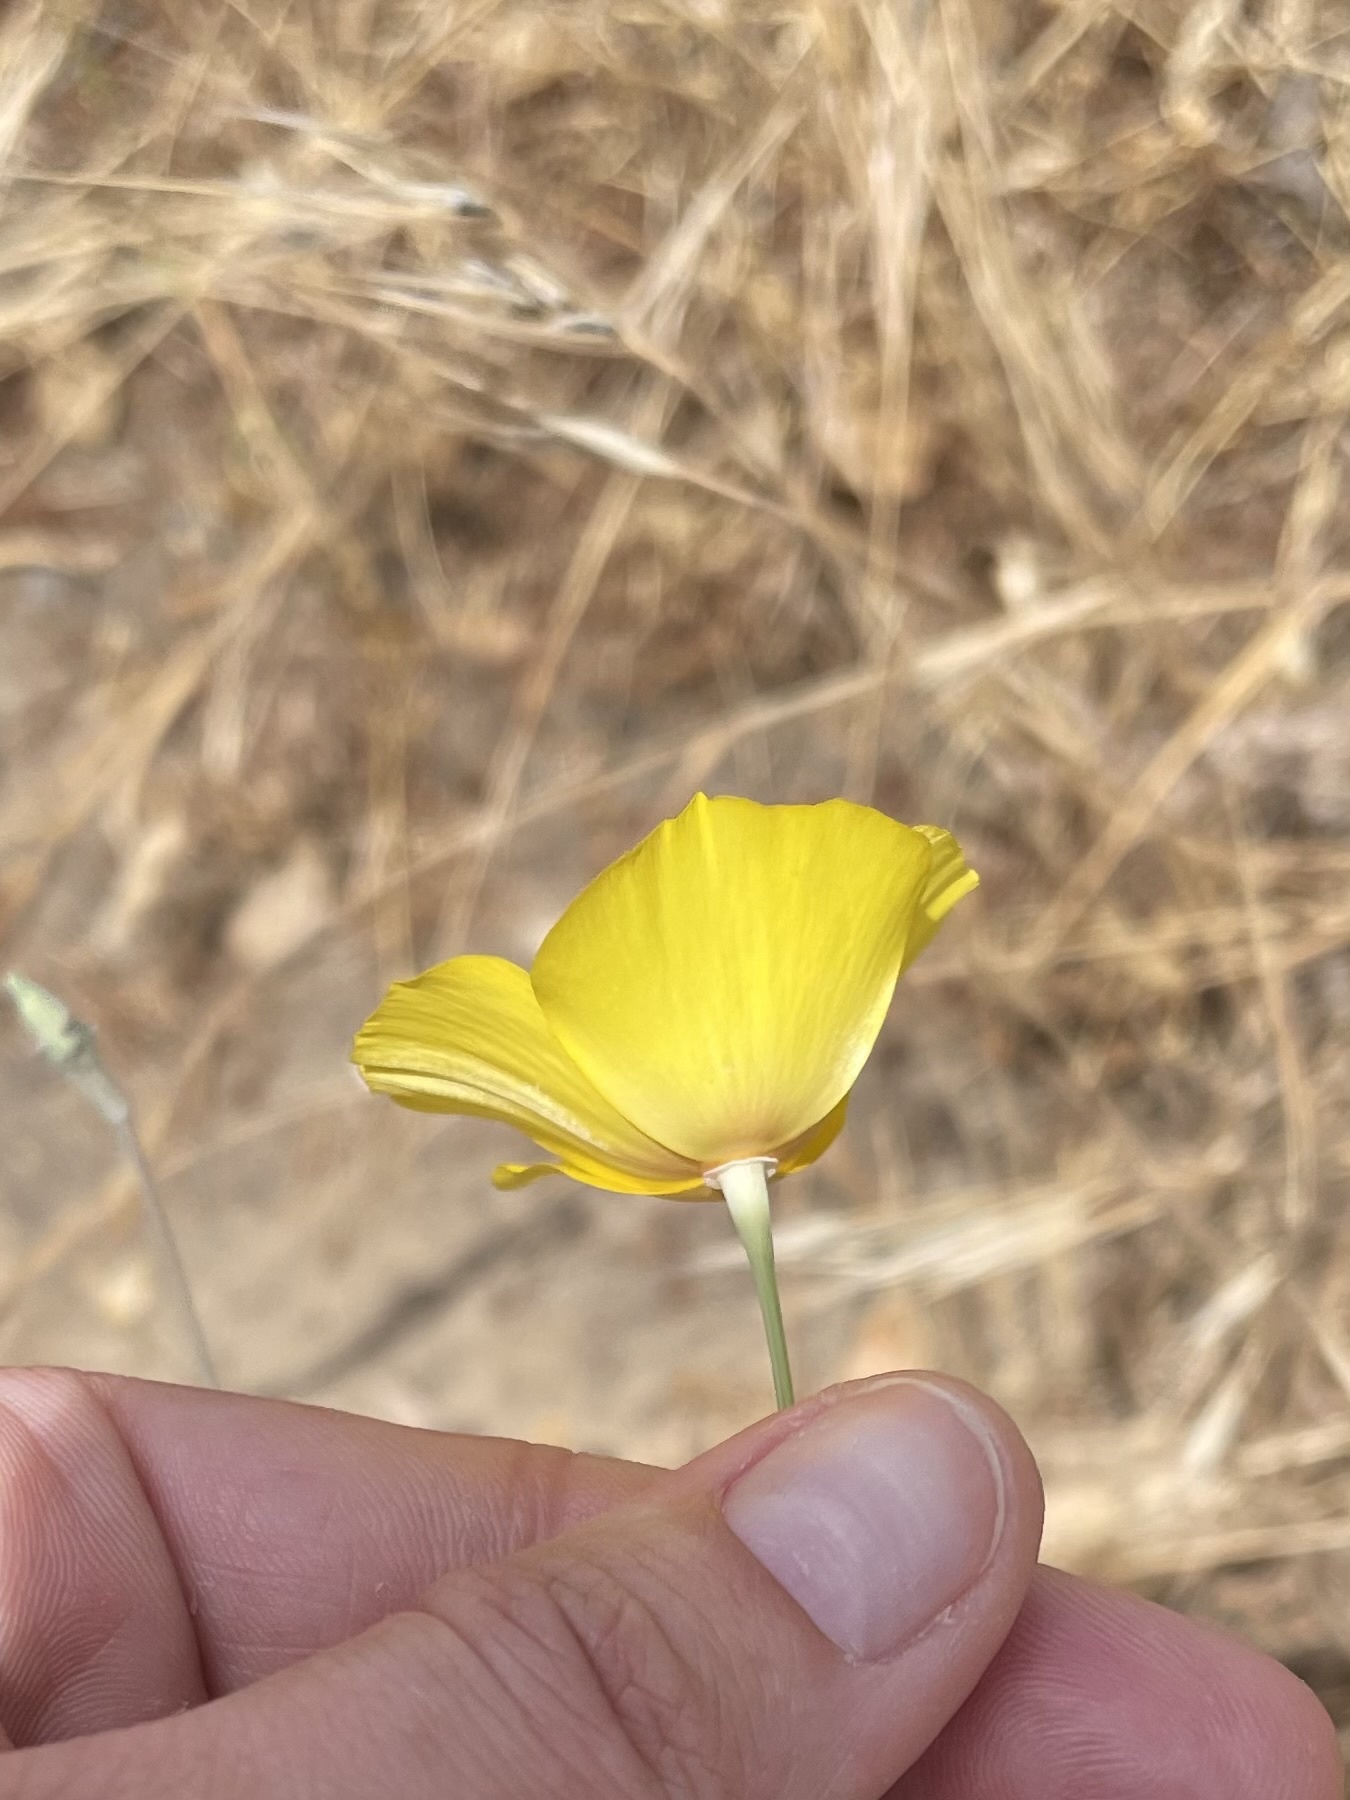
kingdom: Plantae
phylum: Tracheophyta
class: Magnoliopsida
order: Ranunculales
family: Papaveraceae
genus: Eschscholzia
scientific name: Eschscholzia californica
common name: California poppy
